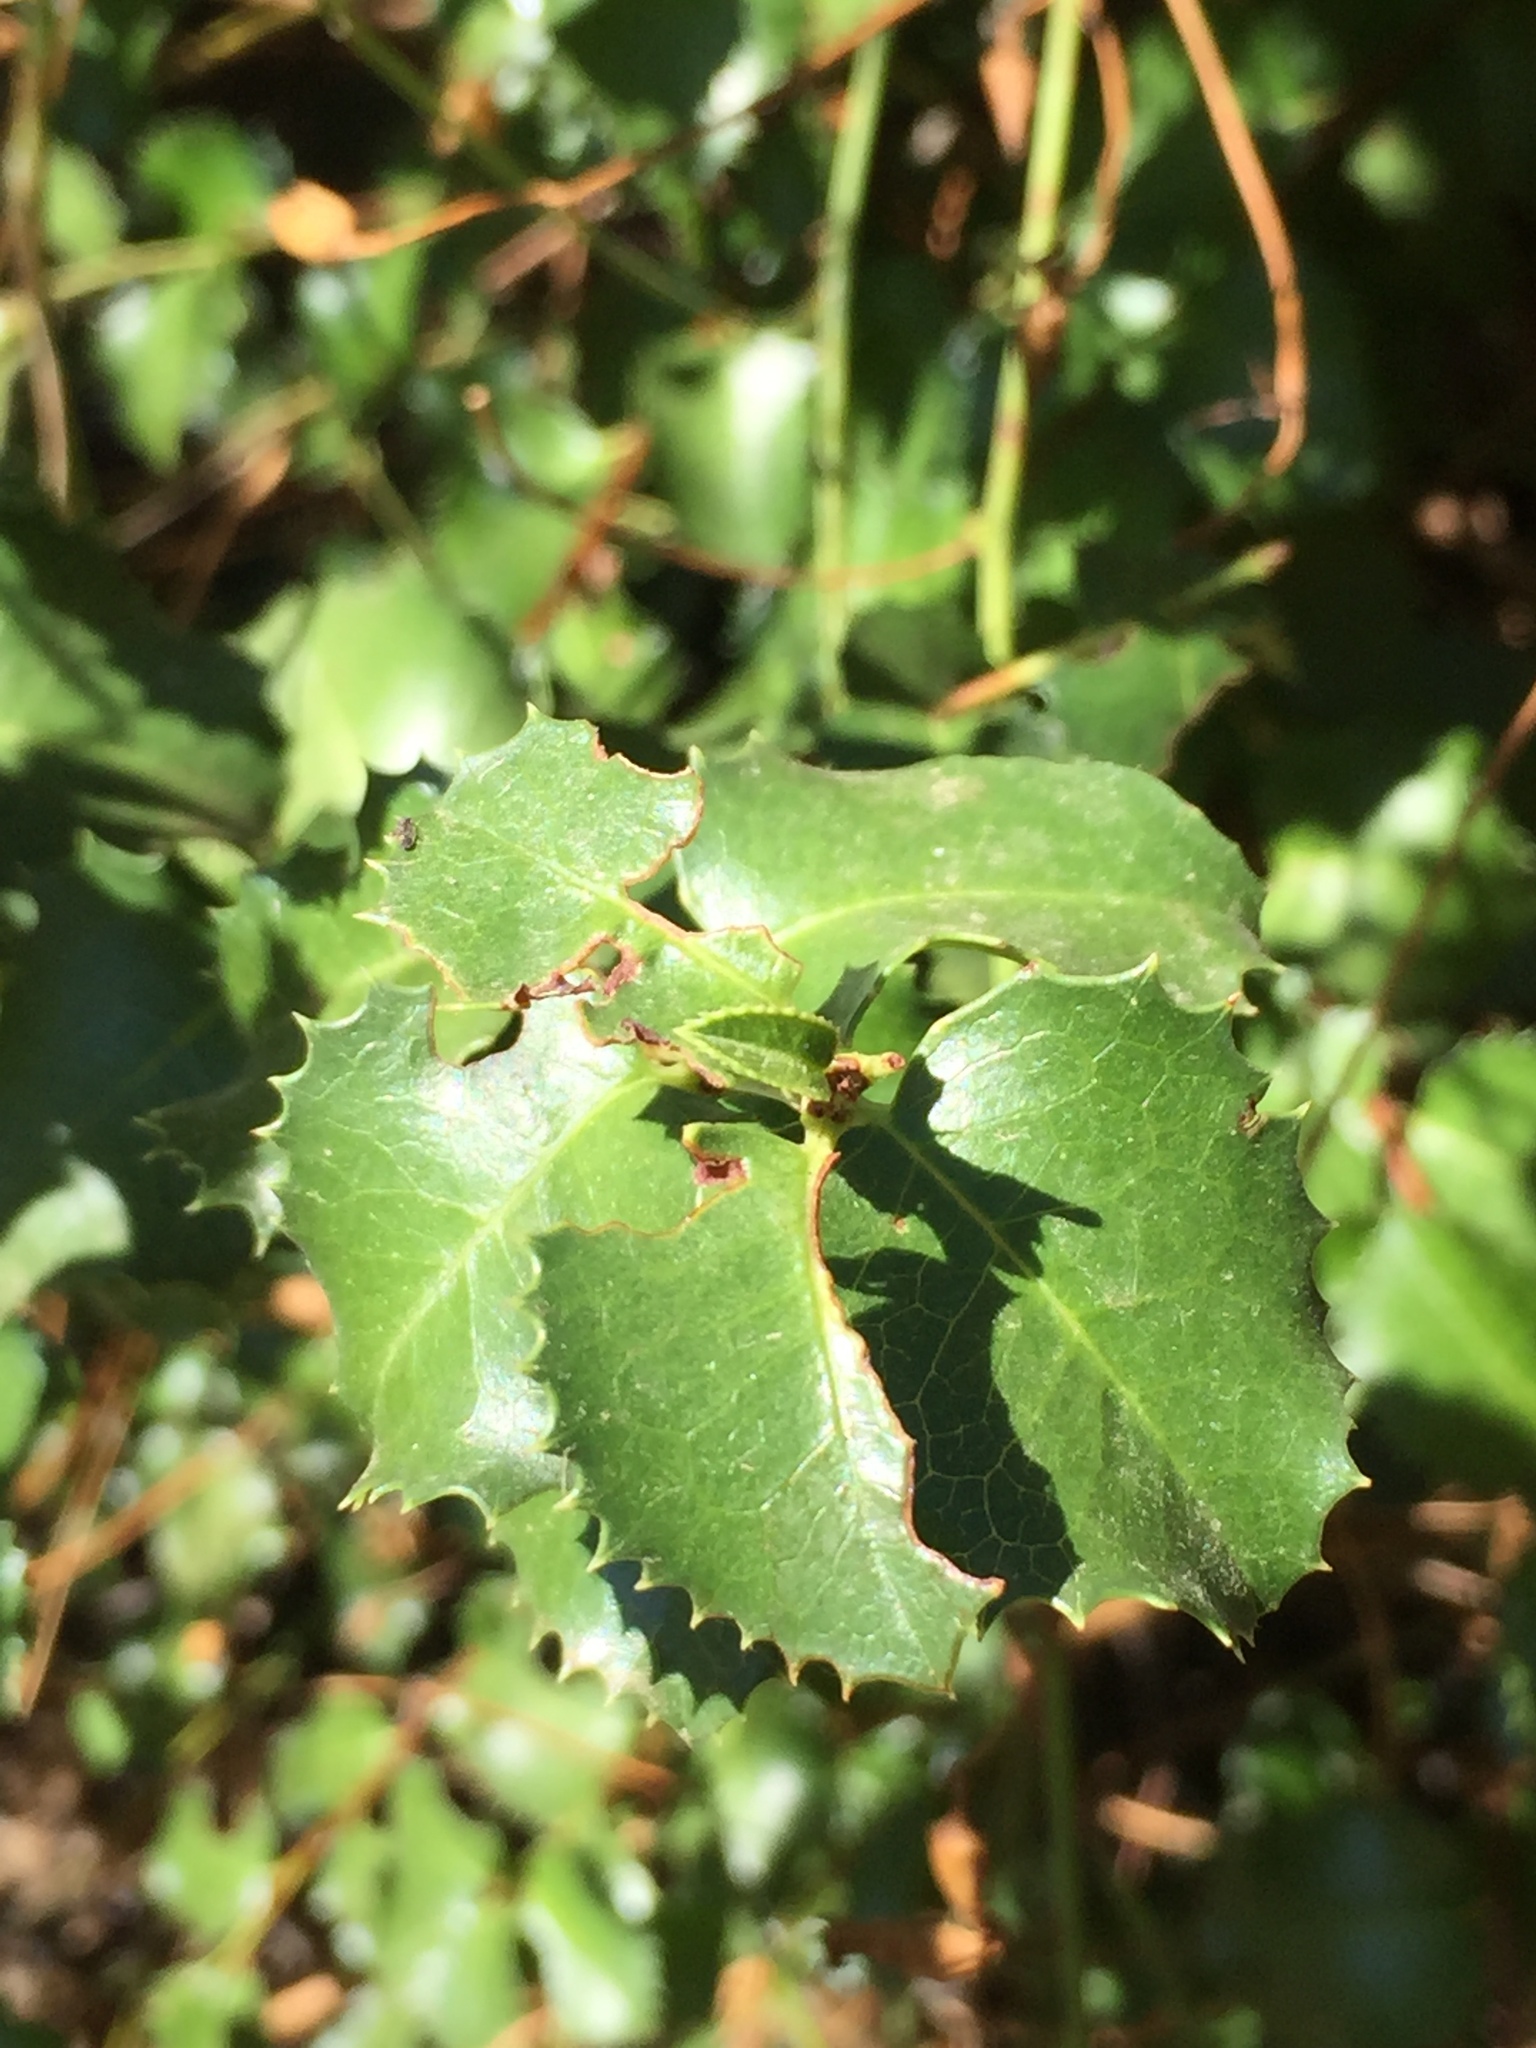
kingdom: Plantae
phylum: Tracheophyta
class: Magnoliopsida
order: Rosales
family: Rosaceae
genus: Prunus
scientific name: Prunus ilicifolia
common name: Hollyleaf cherry
